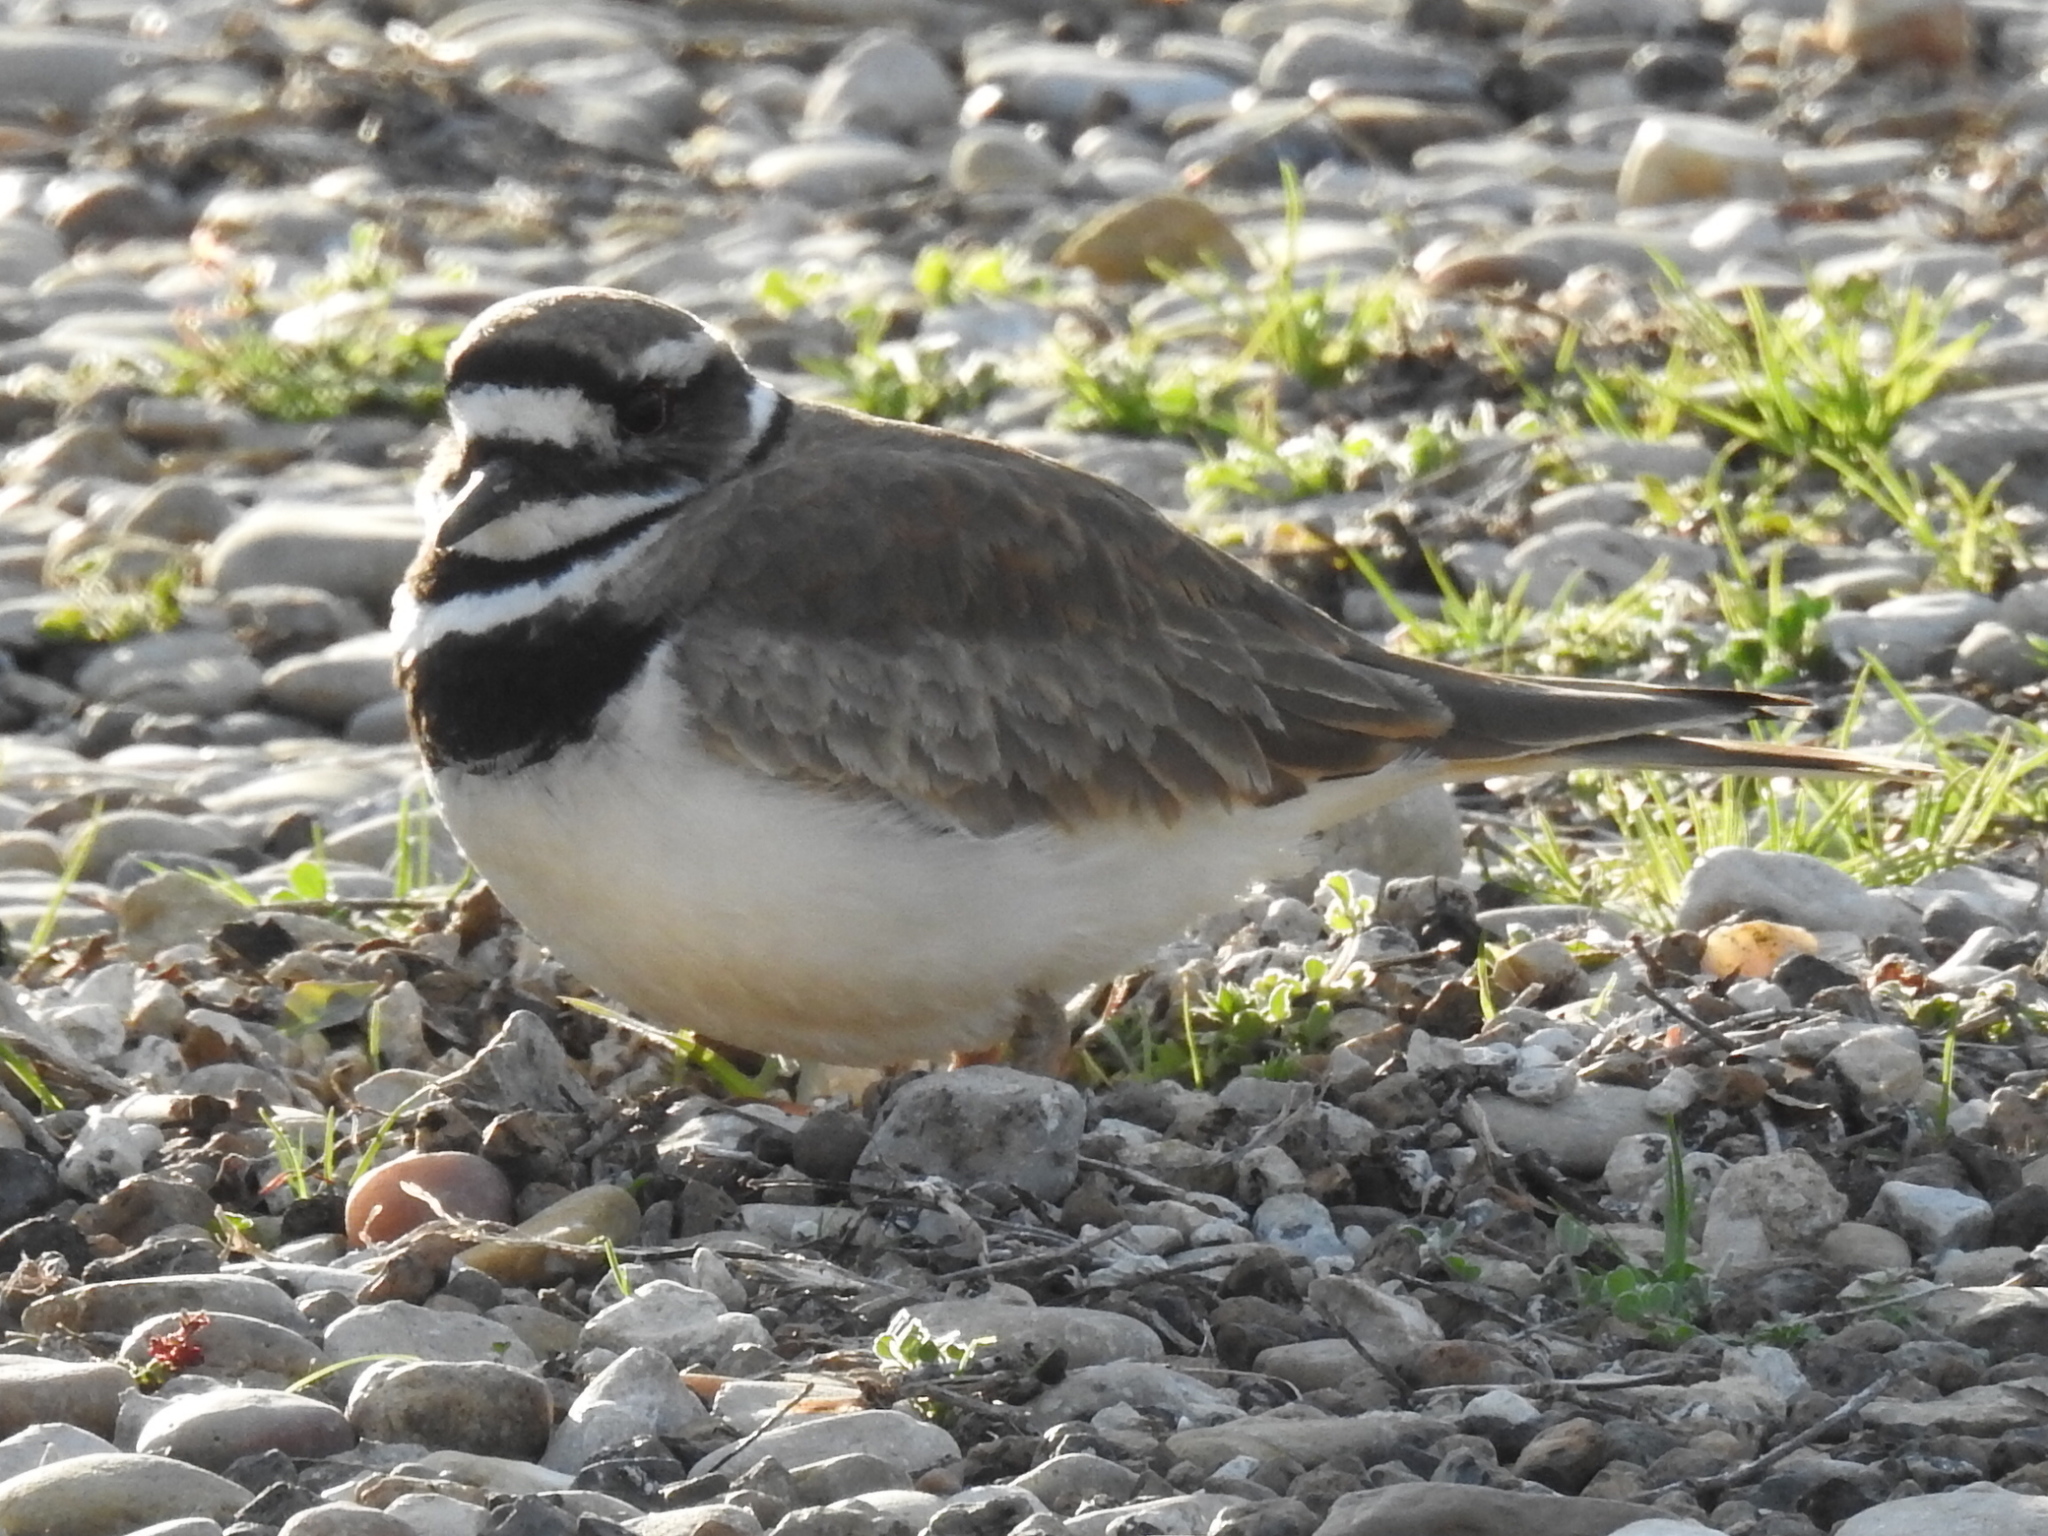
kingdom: Animalia
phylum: Chordata
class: Aves
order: Charadriiformes
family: Charadriidae
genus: Charadrius
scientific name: Charadrius vociferus
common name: Killdeer
